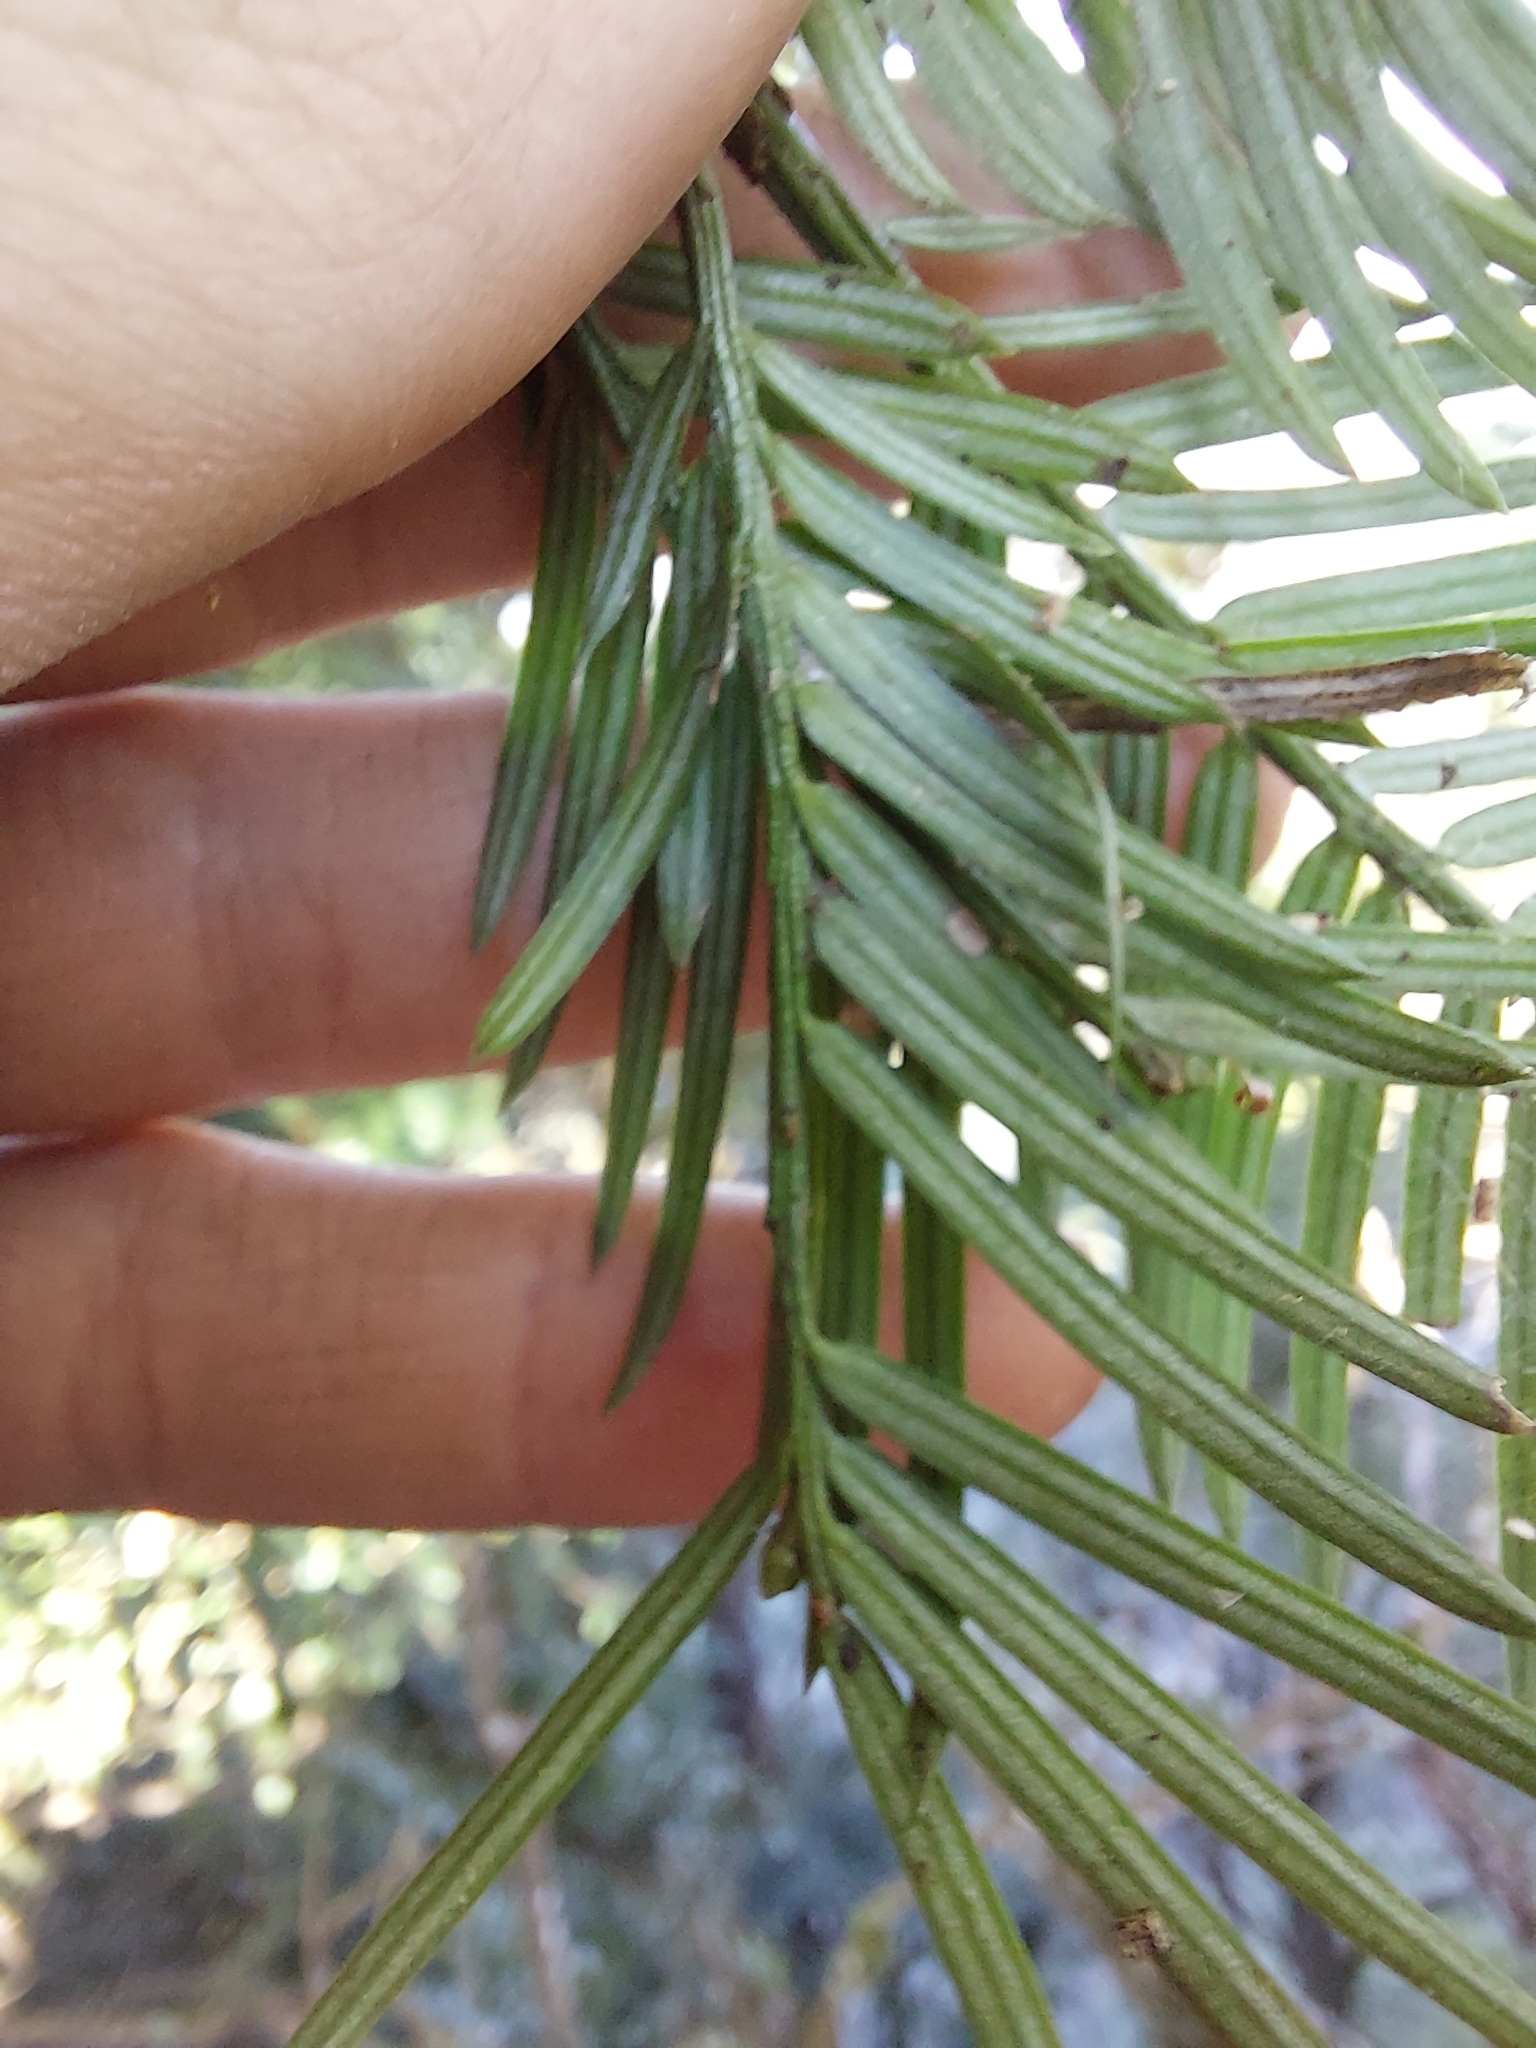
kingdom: Plantae
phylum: Tracheophyta
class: Pinopsida
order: Pinales
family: Cephalotaxaceae
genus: Cephalotaxus
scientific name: Cephalotaxus harringtonii
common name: Harrington's plum yew
